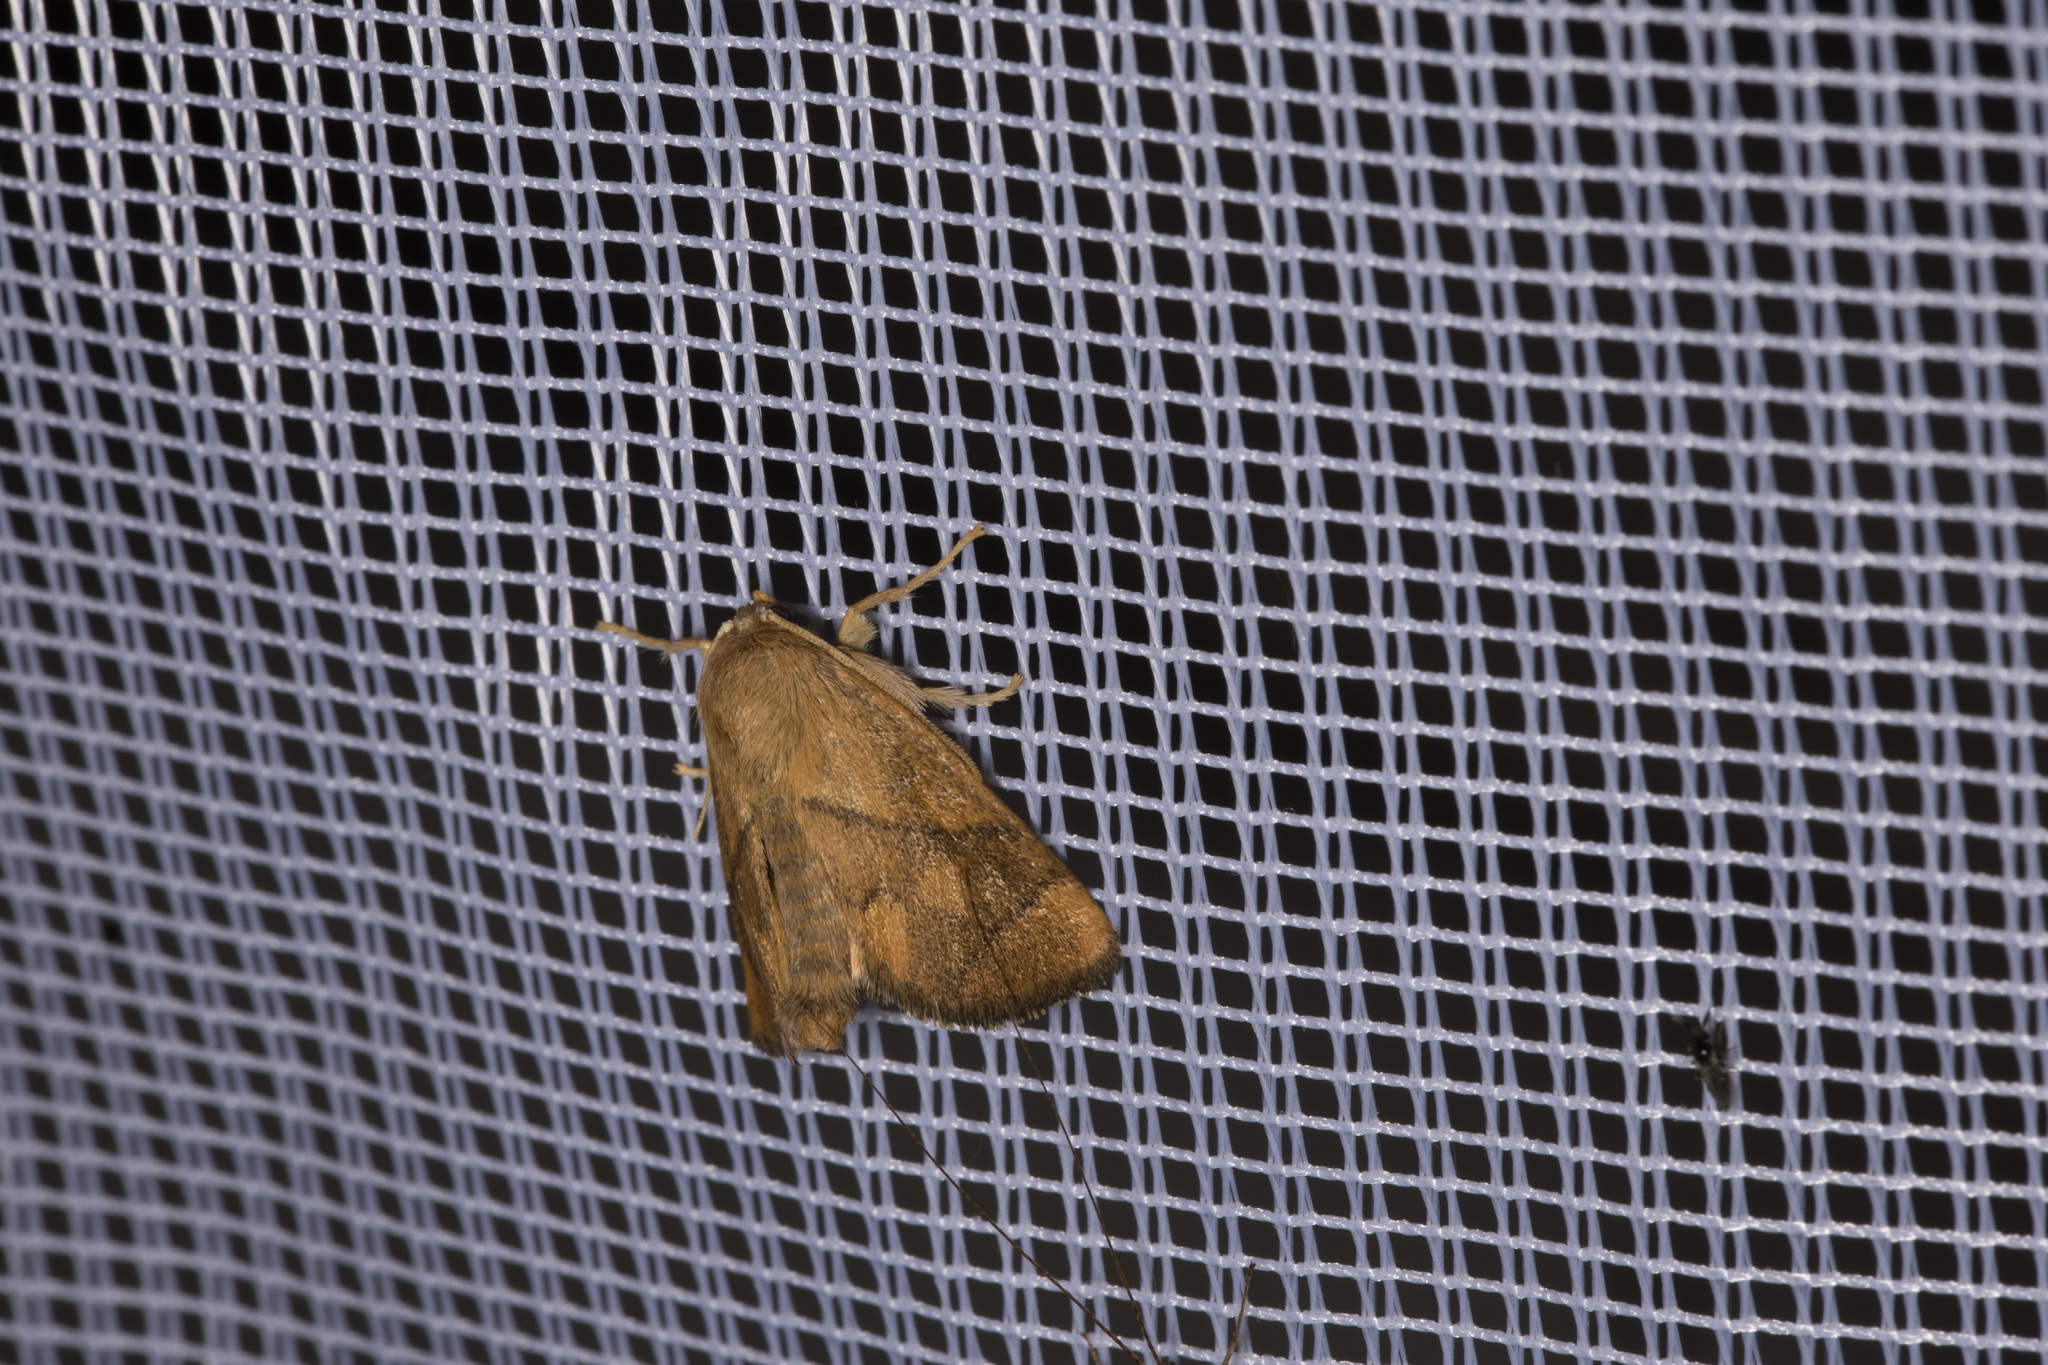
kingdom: Animalia
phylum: Arthropoda
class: Insecta
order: Lepidoptera
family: Limacodidae
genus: Apoda
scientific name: Apoda limacodes
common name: Festoon
